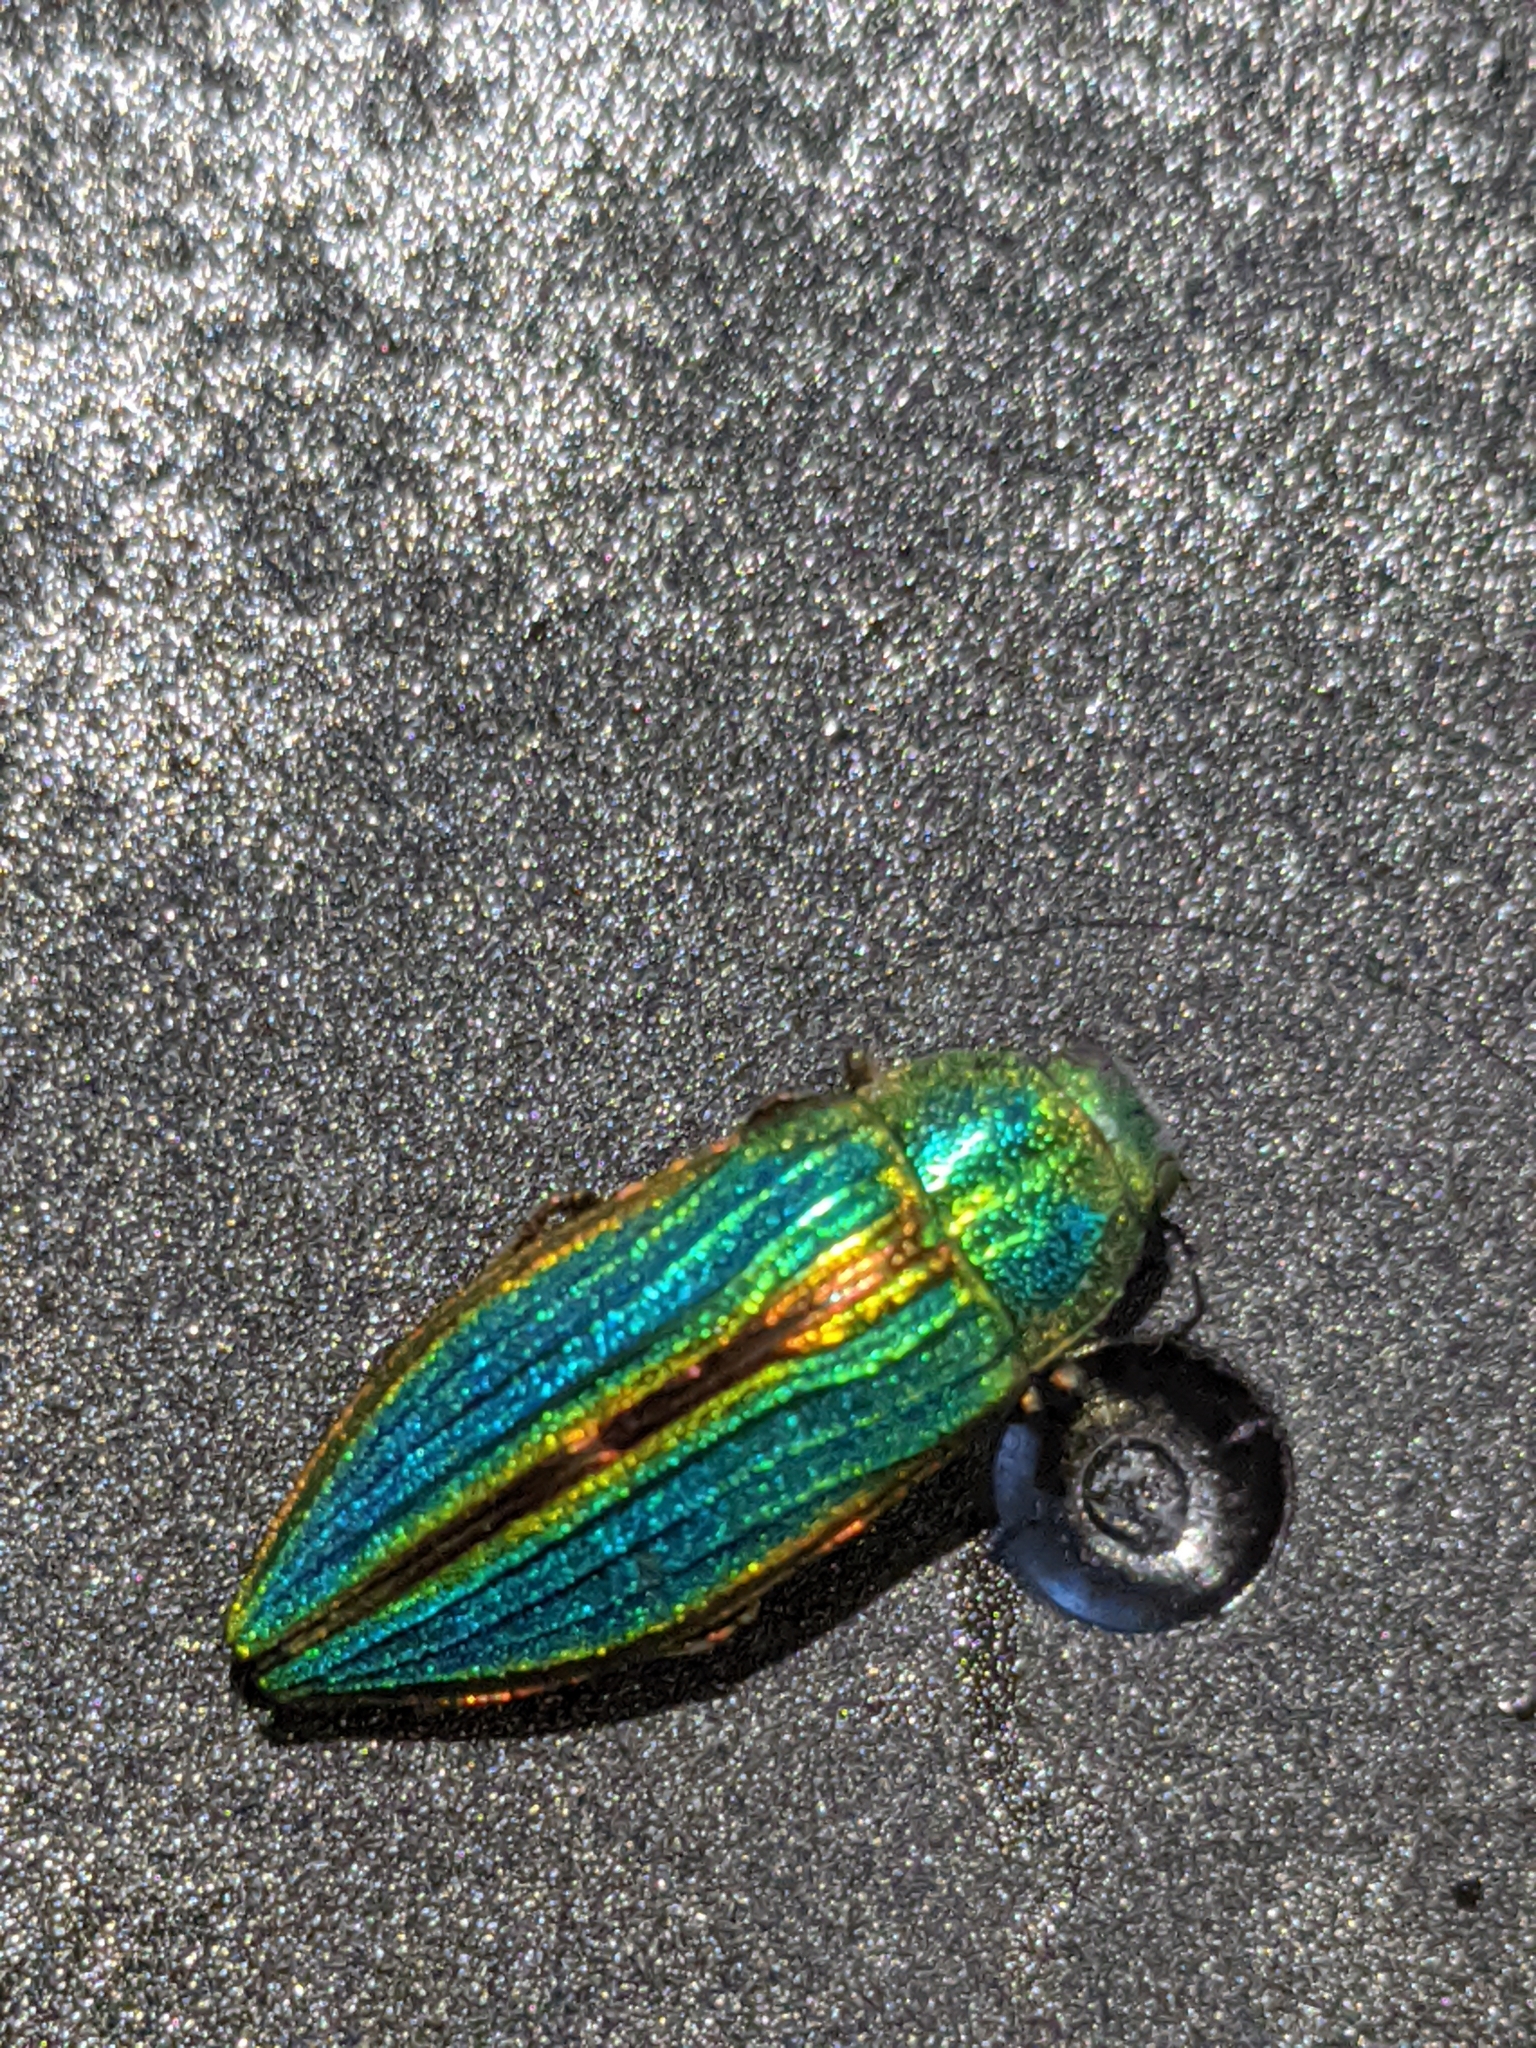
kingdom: Animalia
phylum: Arthropoda
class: Insecta
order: Coleoptera
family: Buprestidae
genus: Buprestis
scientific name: Buprestis aurulenta
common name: Golden buprestid
